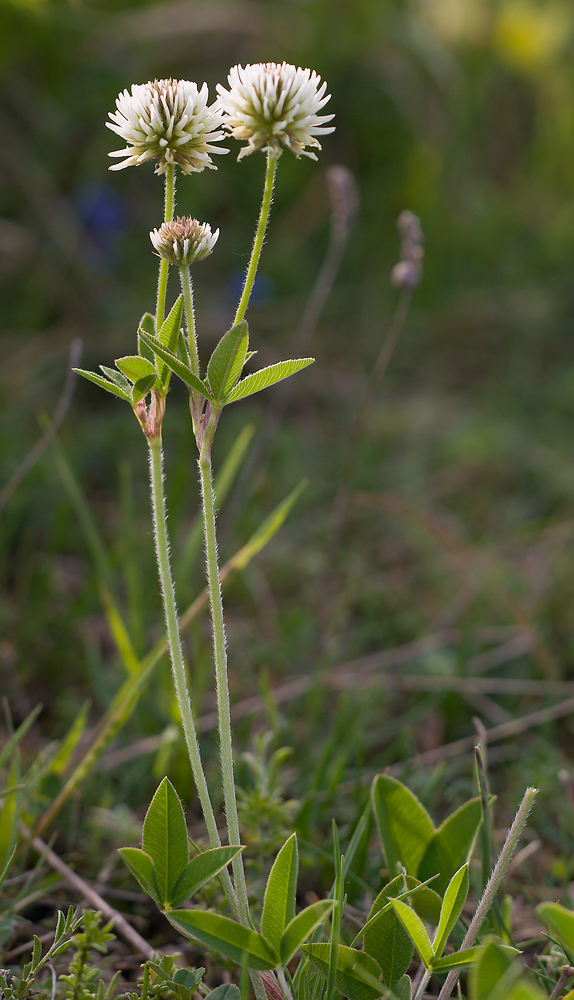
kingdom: Plantae
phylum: Tracheophyta
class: Magnoliopsida
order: Fabales
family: Fabaceae
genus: Trifolium
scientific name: Trifolium montanum
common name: Mountain clover
